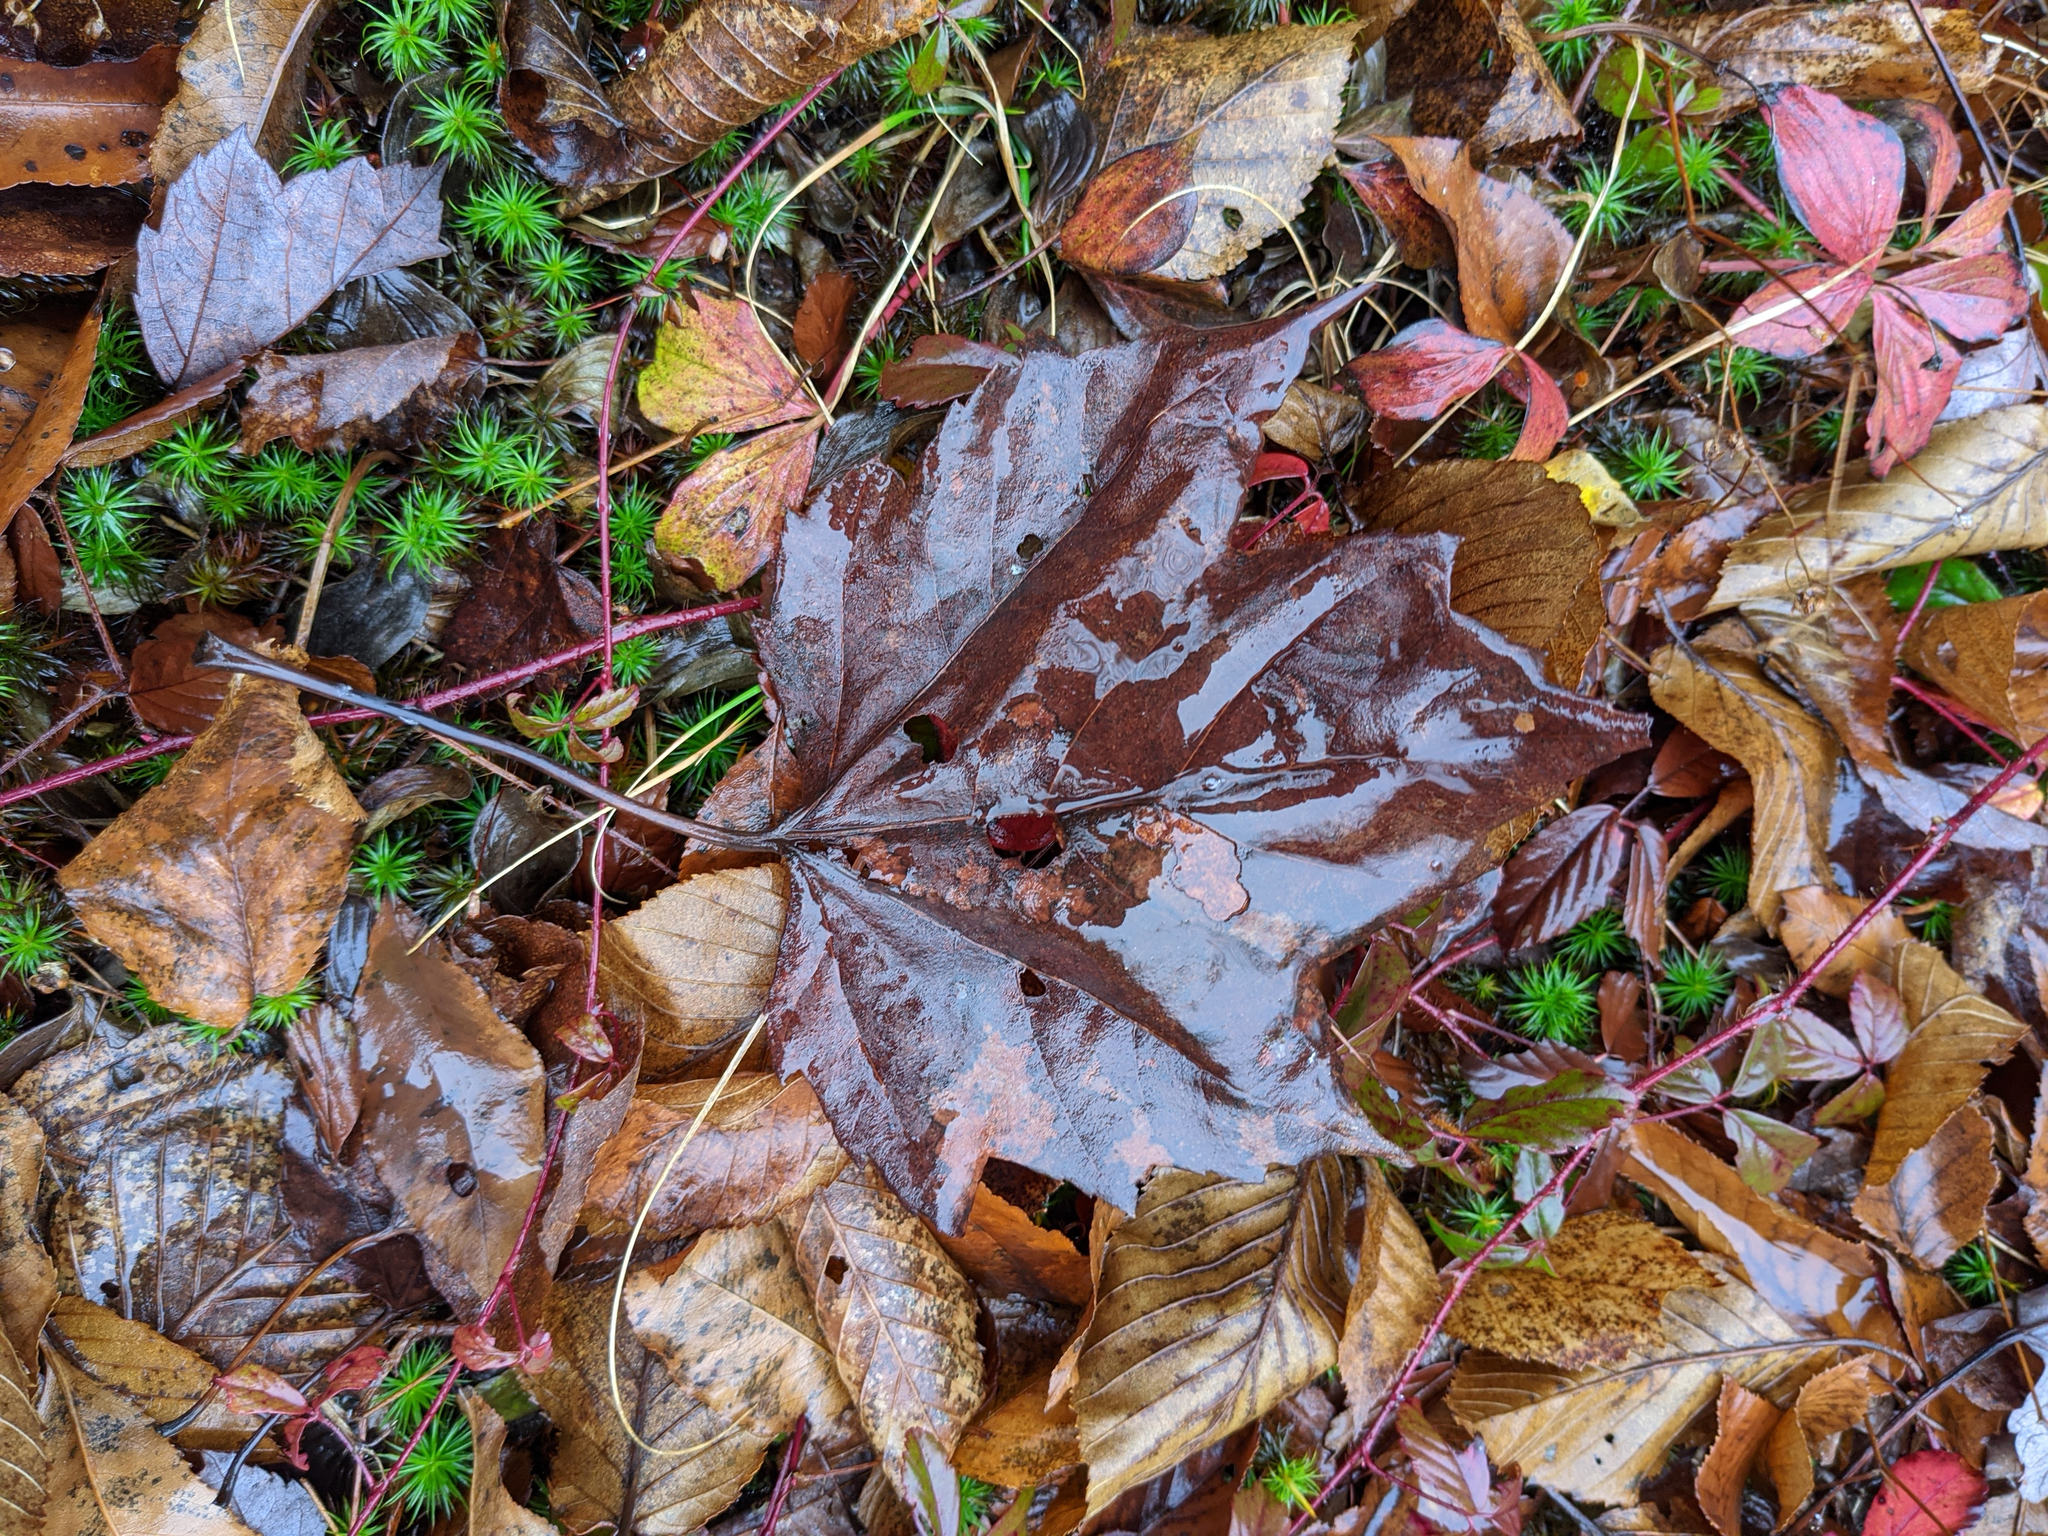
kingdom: Plantae
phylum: Tracheophyta
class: Magnoliopsida
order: Sapindales
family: Sapindaceae
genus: Acer
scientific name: Acer rubrum
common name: Red maple
